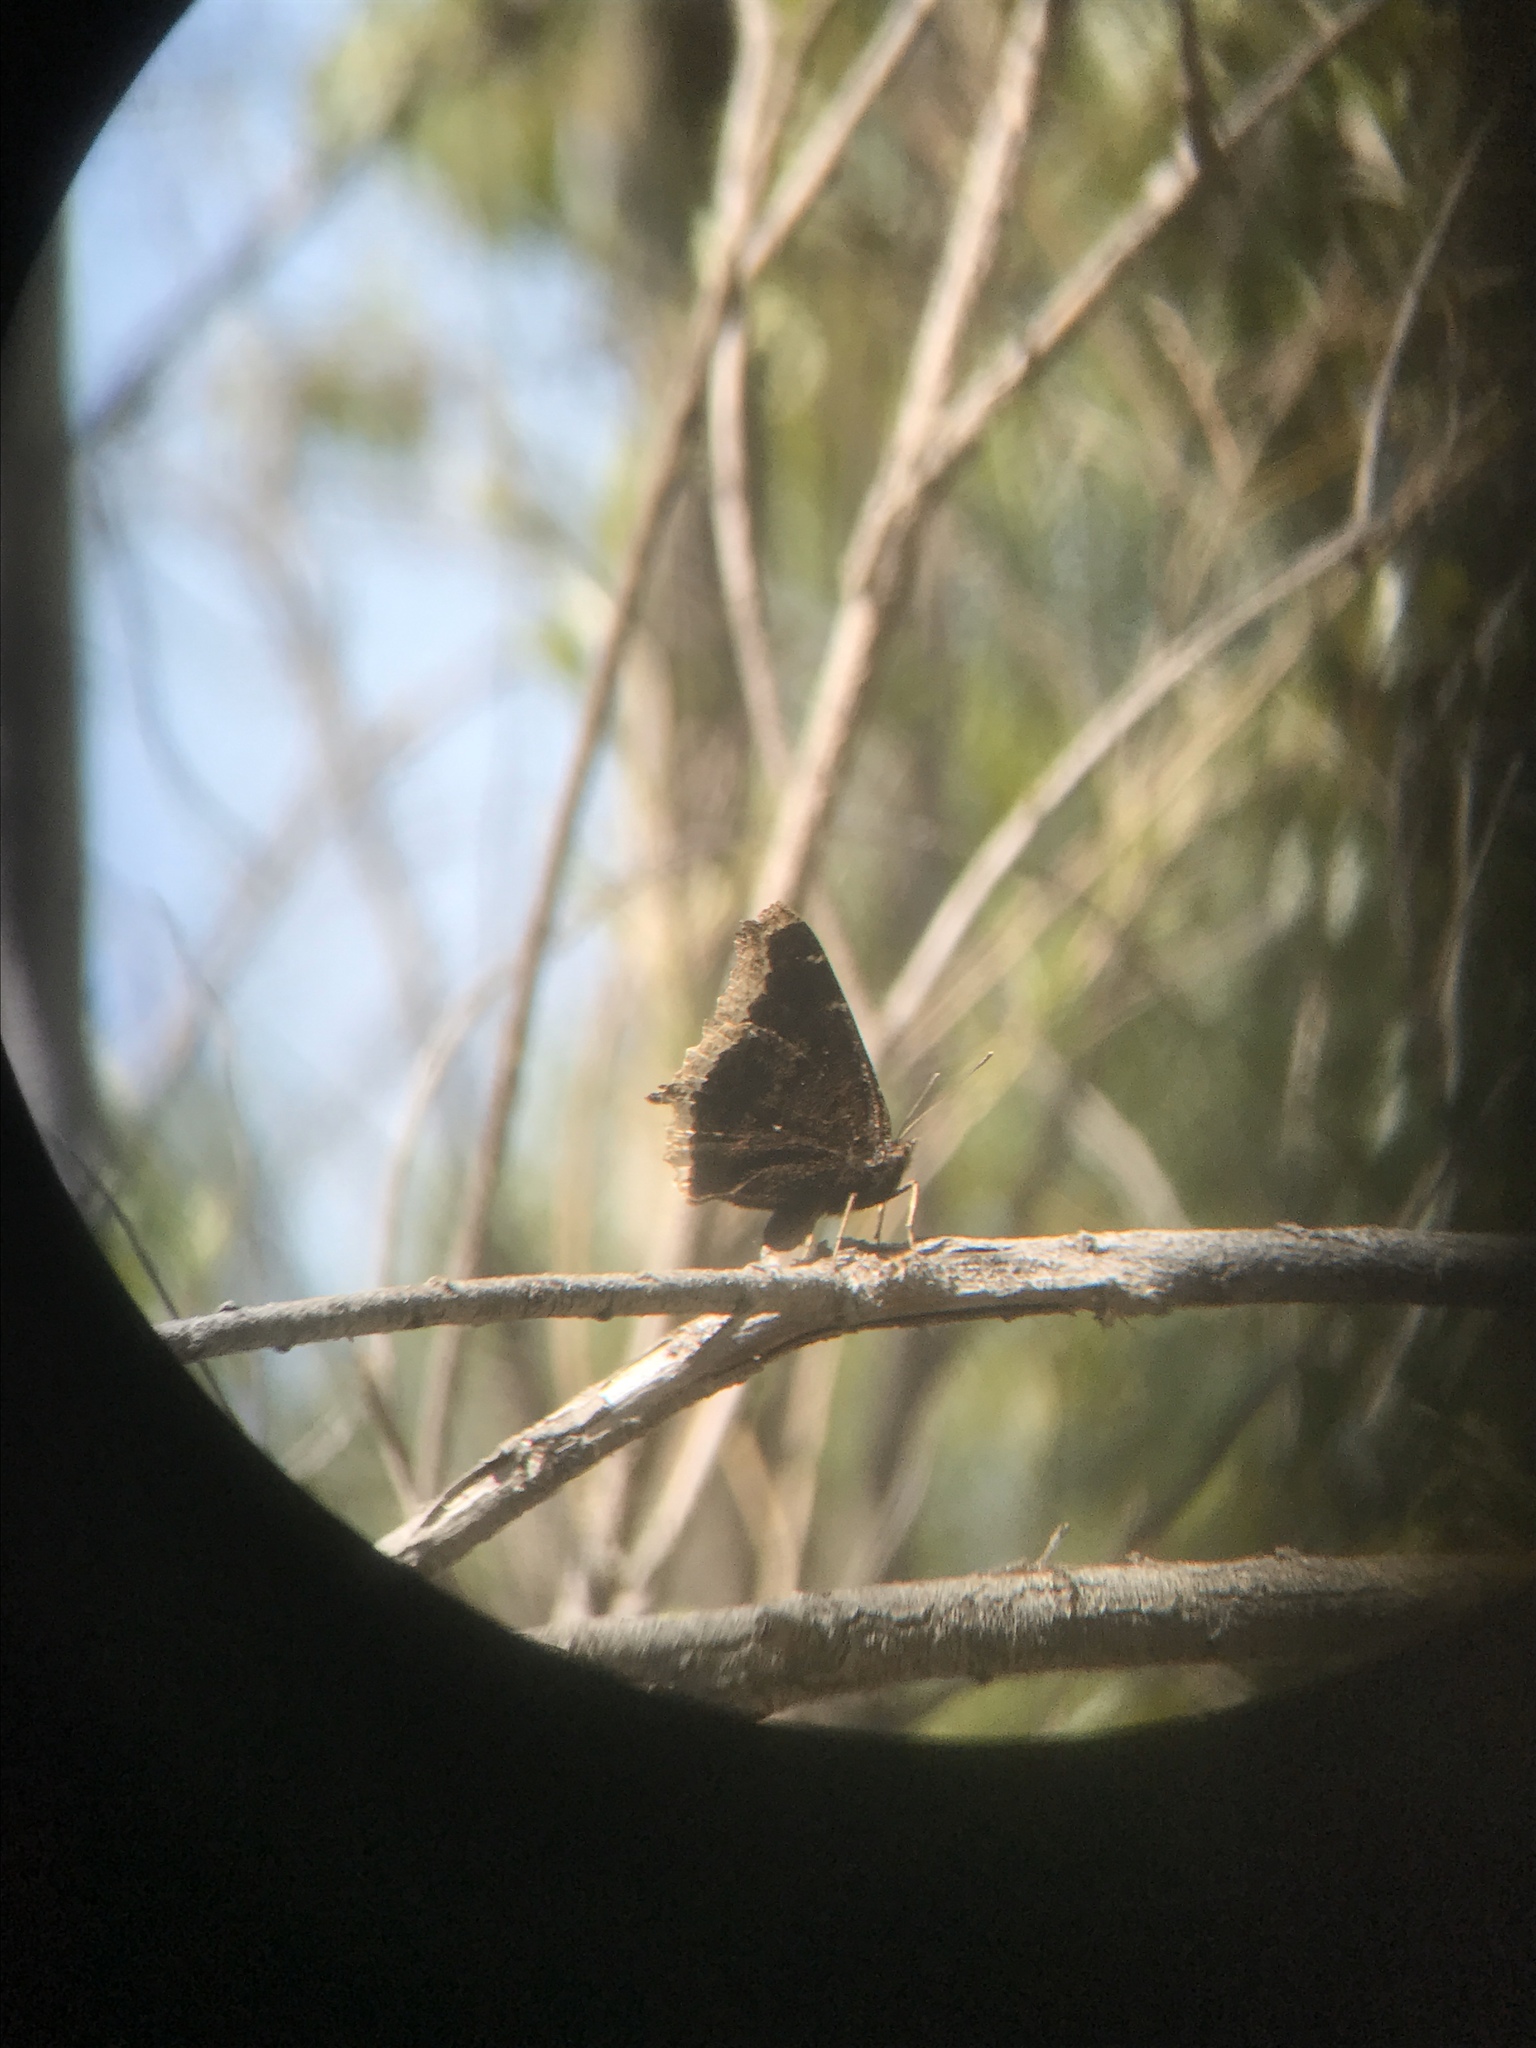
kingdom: Animalia
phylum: Arthropoda
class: Insecta
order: Lepidoptera
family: Nymphalidae
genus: Nymphalis
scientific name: Nymphalis antiopa
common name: Camberwell beauty
